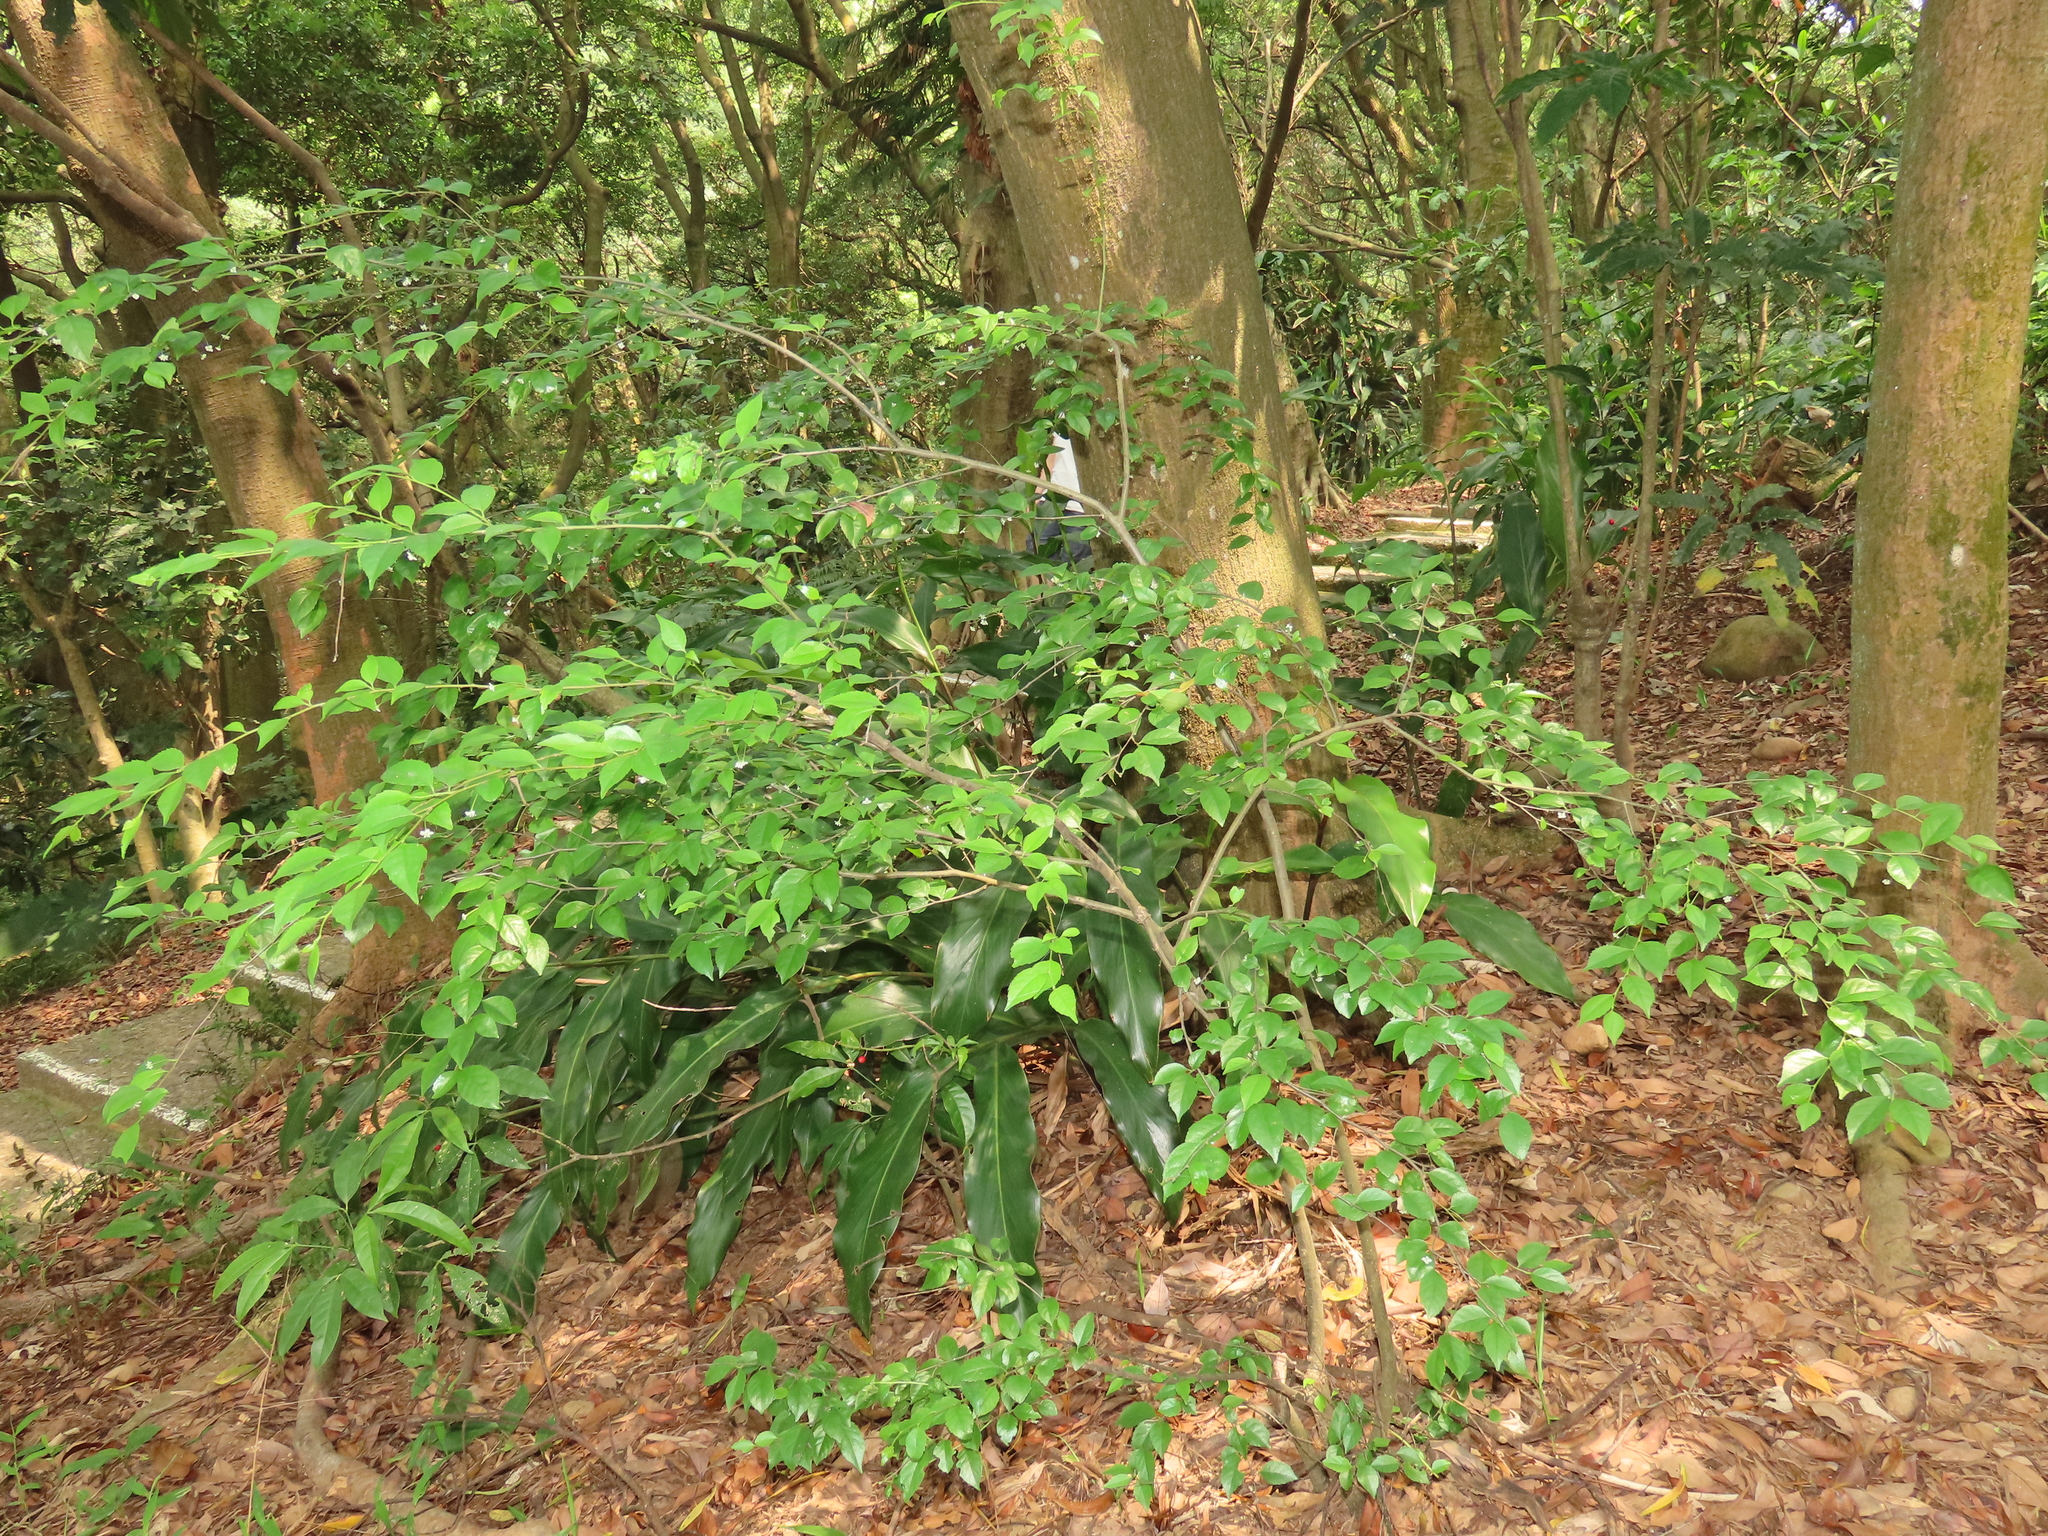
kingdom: Plantae
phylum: Tracheophyta
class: Magnoliopsida
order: Aquifoliales
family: Aquifoliaceae
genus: Ilex
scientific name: Ilex asprella
